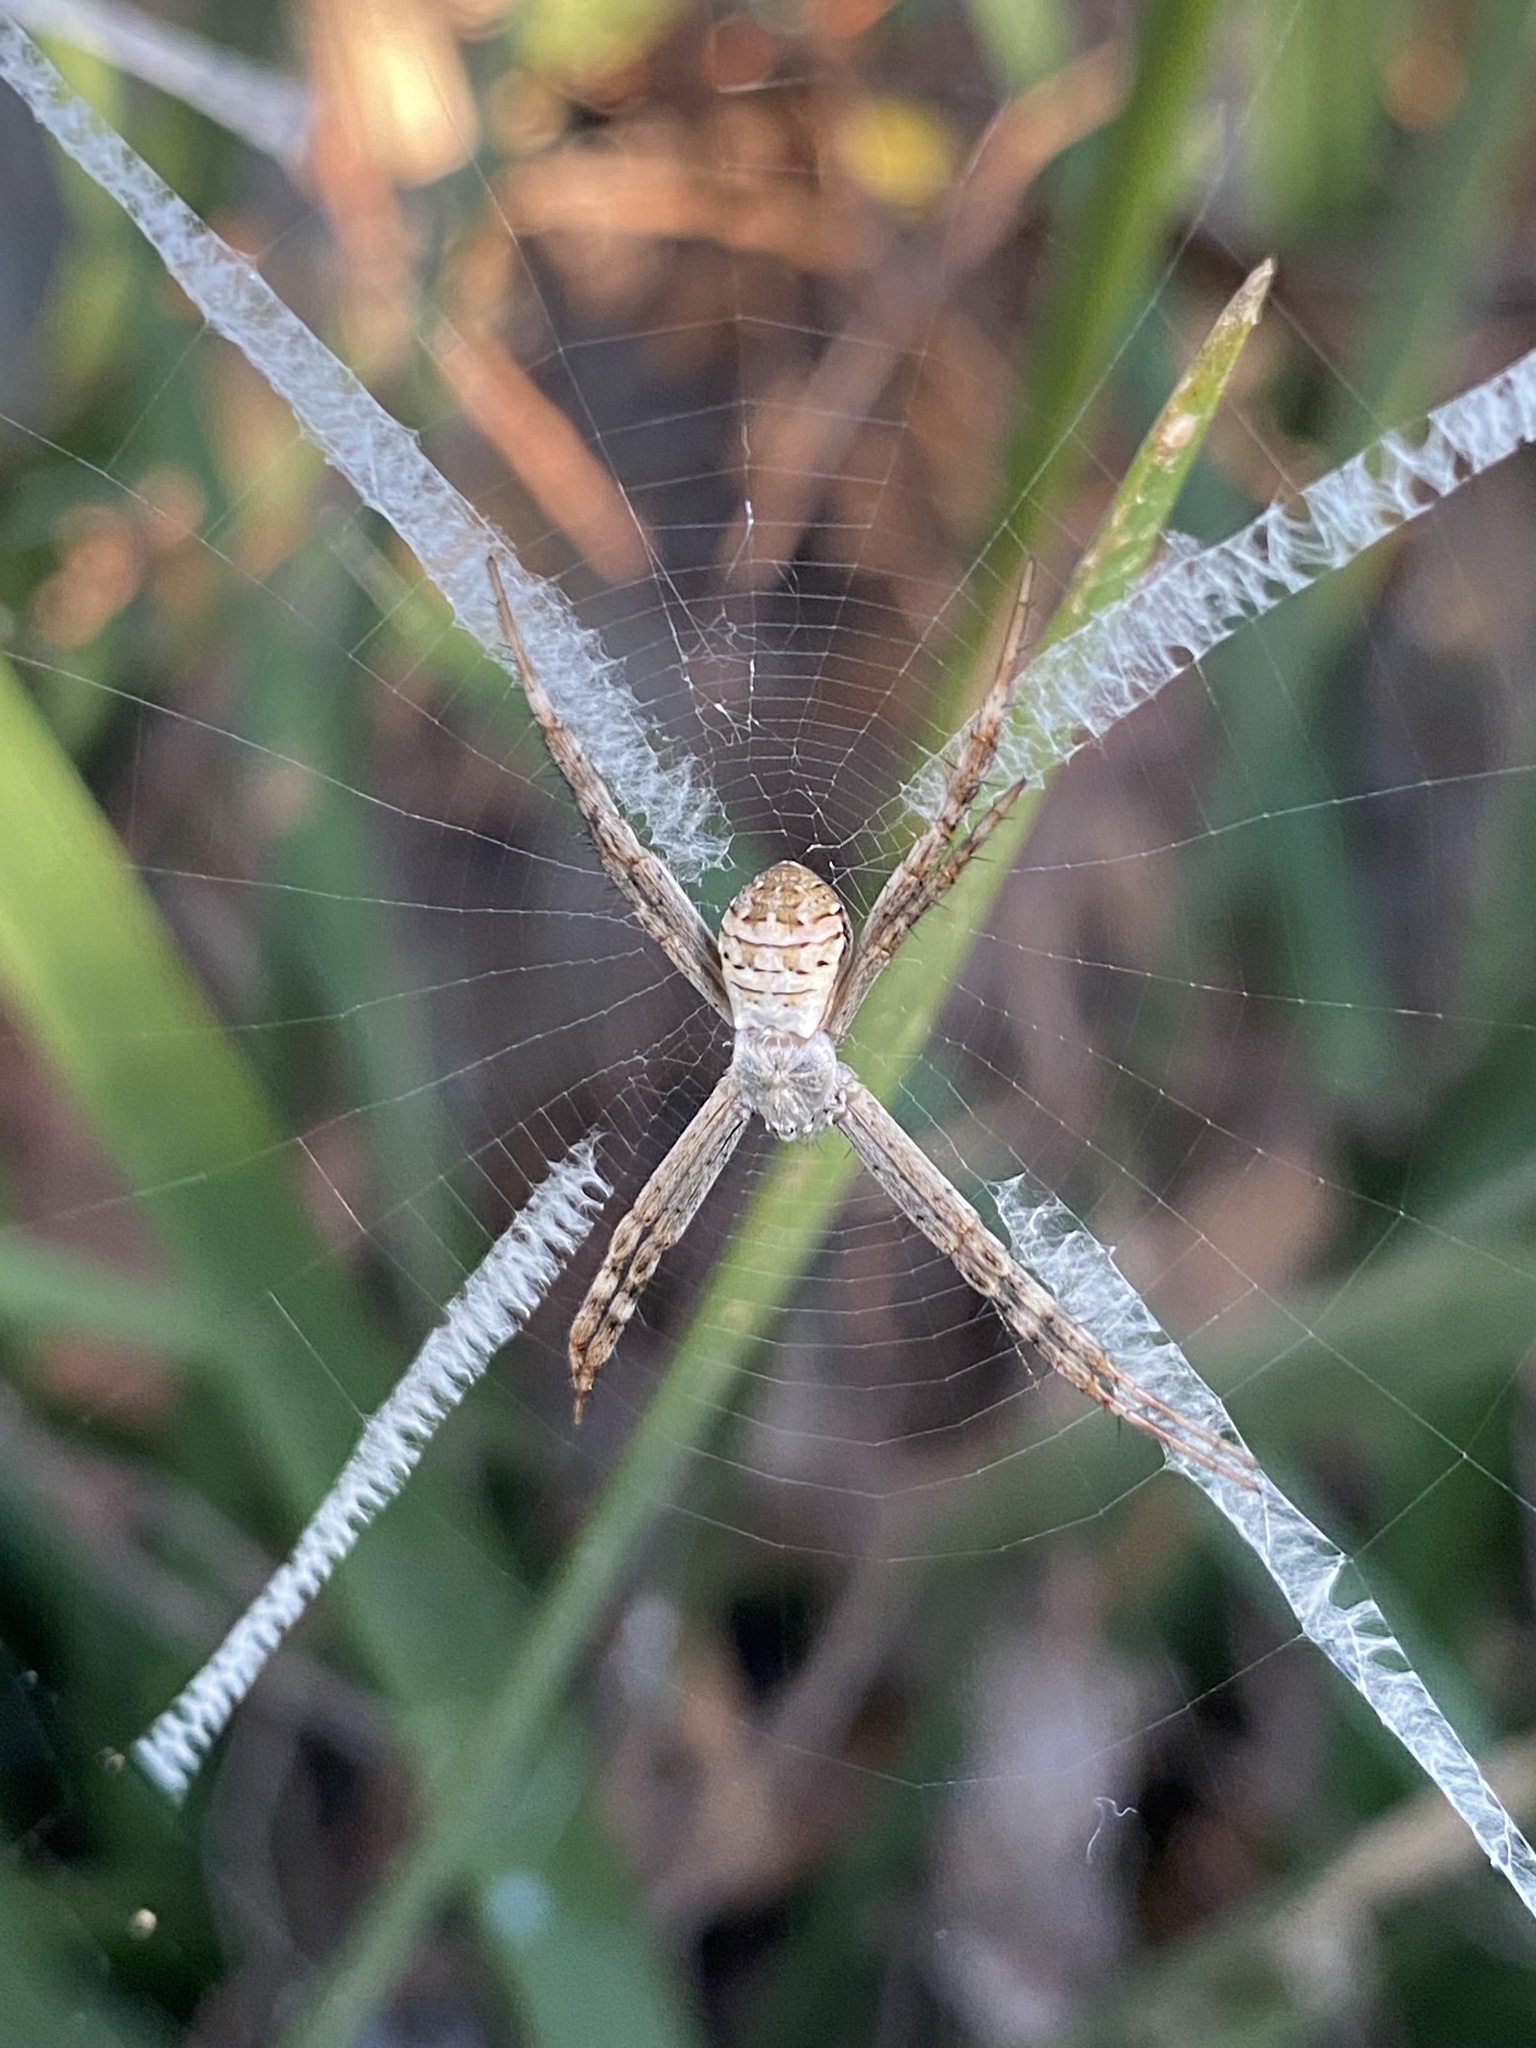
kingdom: Animalia
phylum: Arthropoda
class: Arachnida
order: Araneae
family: Araneidae
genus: Argiope
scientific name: Argiope keyserlingi
